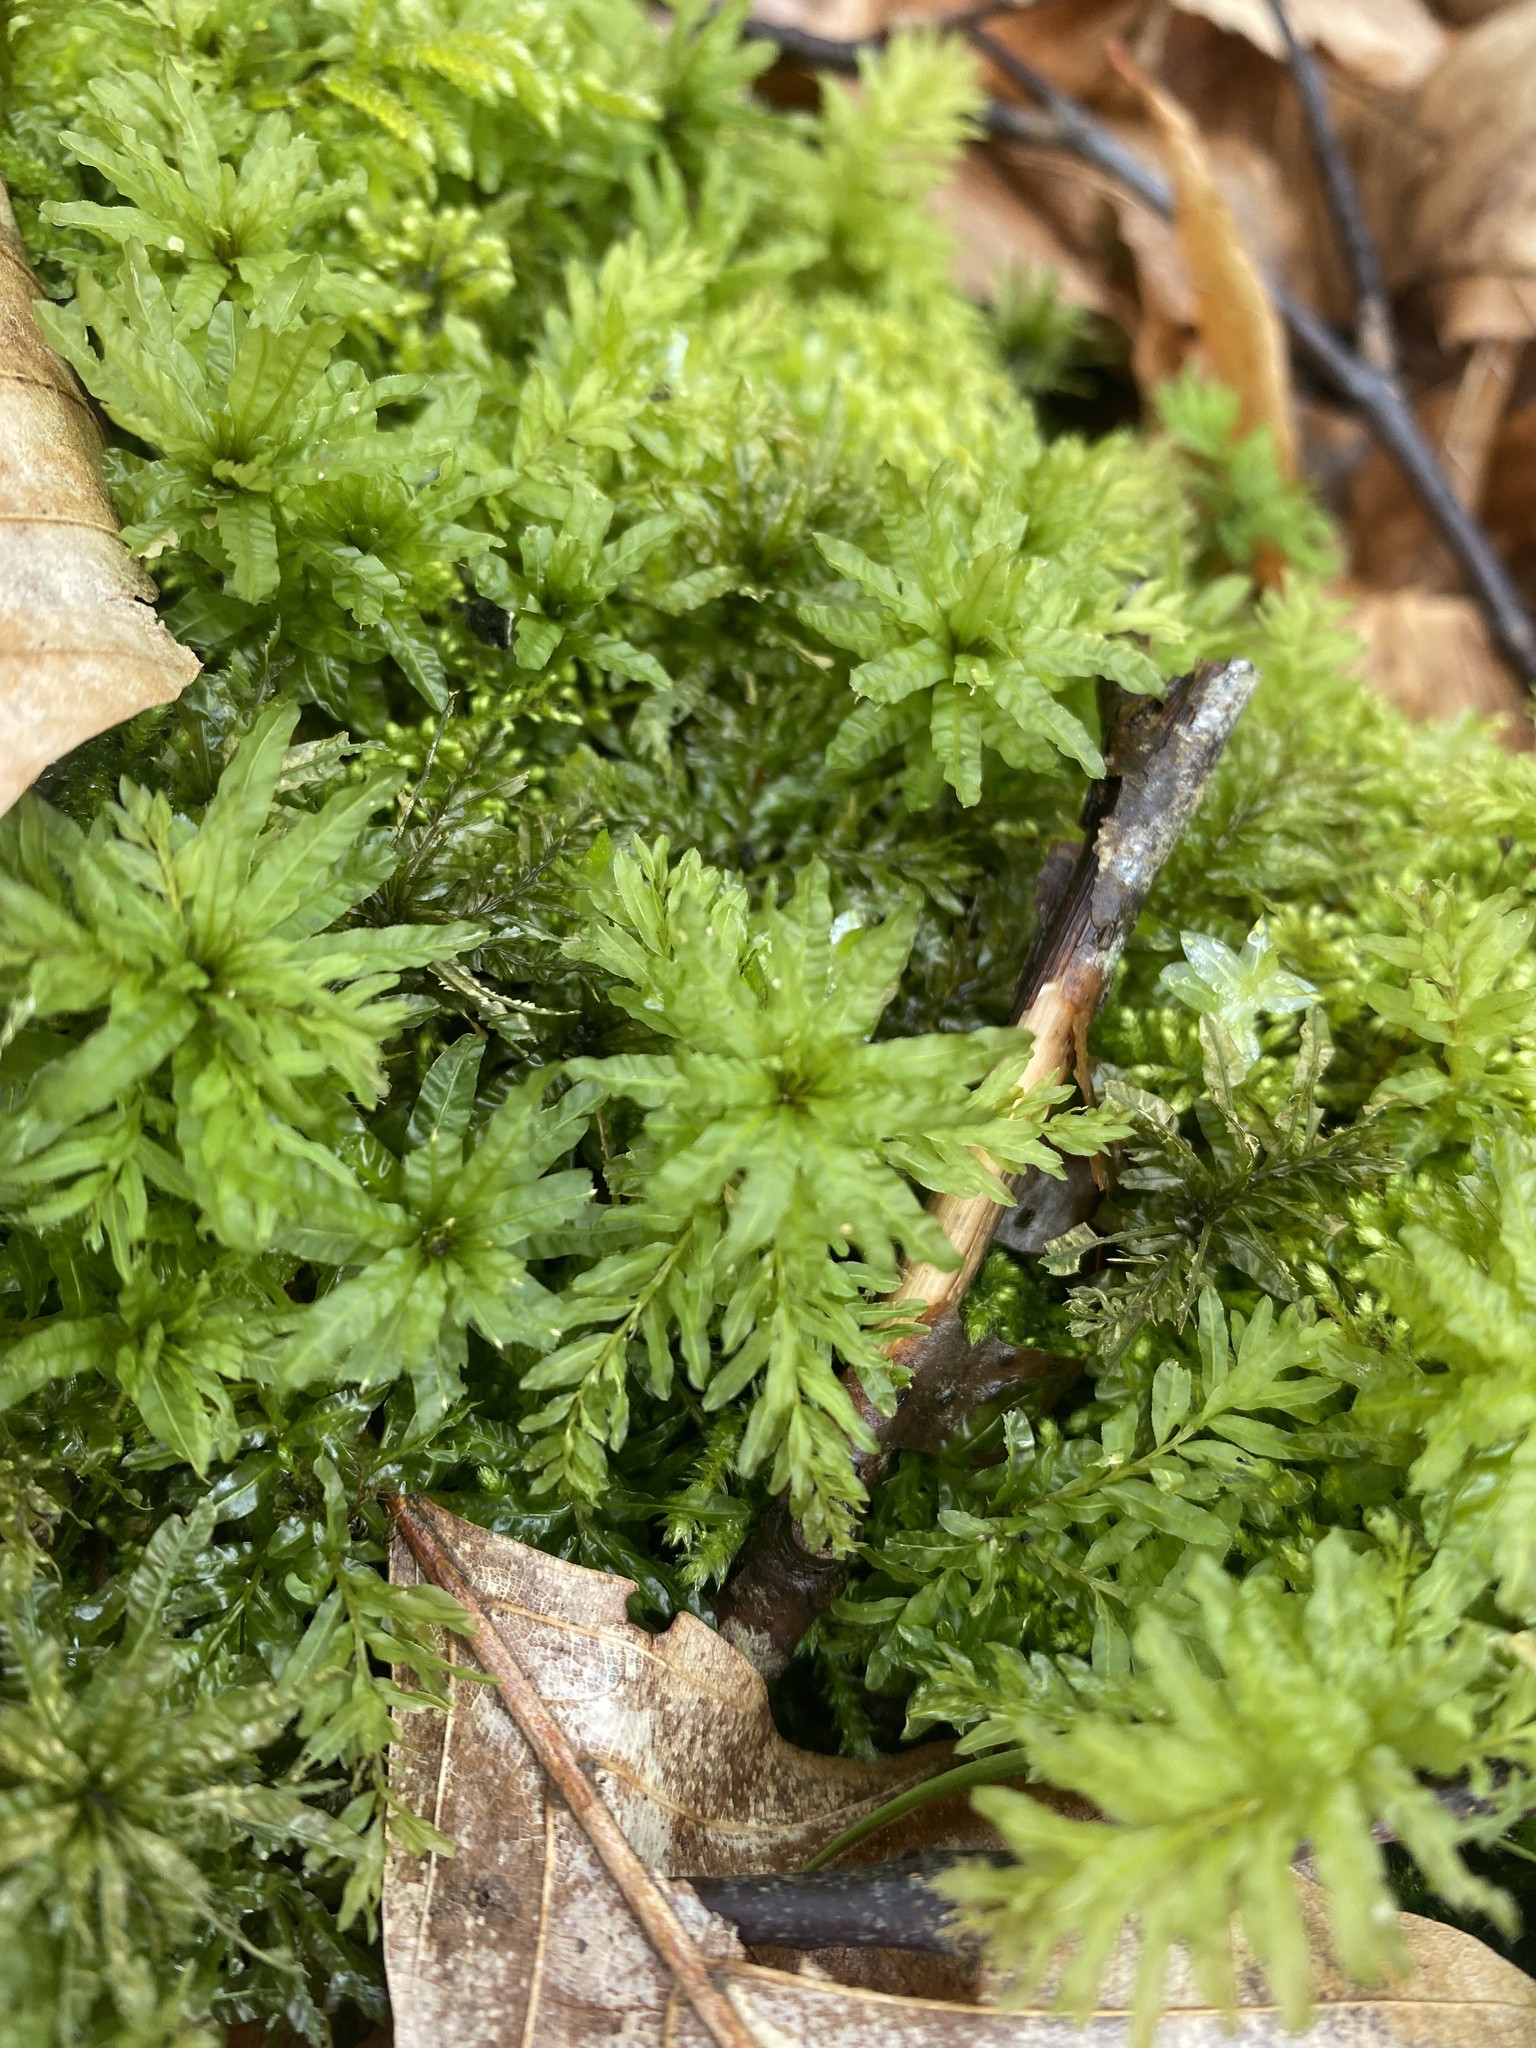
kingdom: Plantae
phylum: Bryophyta
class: Bryopsida
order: Bryales
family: Mniaceae
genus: Plagiomnium
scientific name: Plagiomnium undulatum
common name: Hart's-tongue thyme-moss
